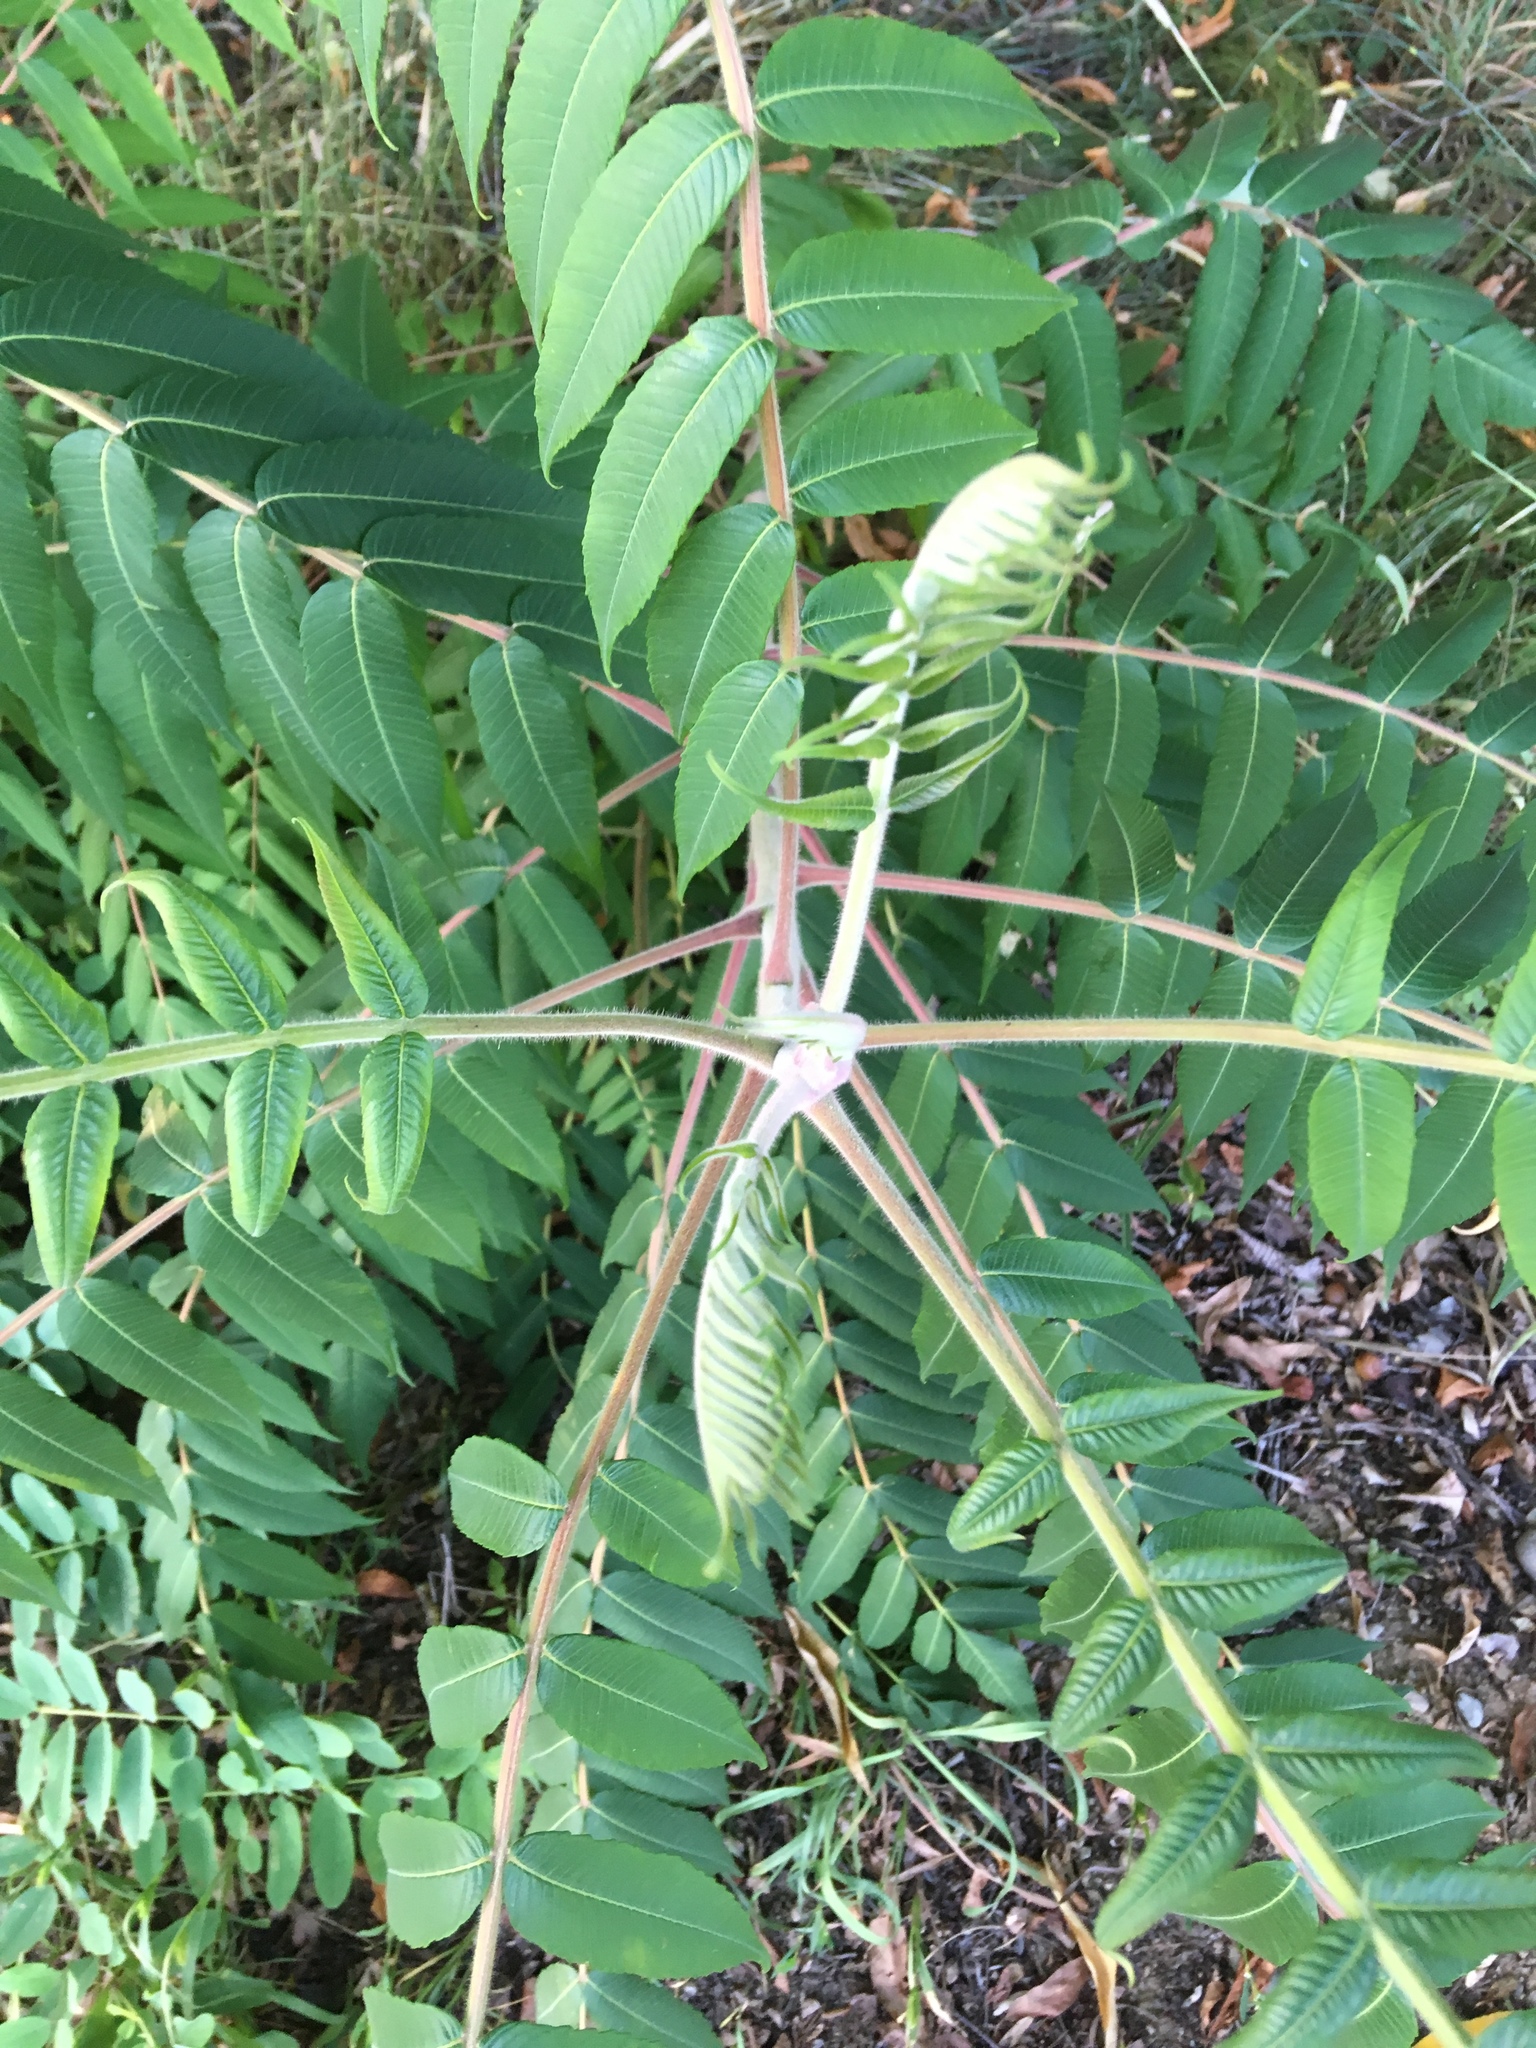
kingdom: Plantae
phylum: Tracheophyta
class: Magnoliopsida
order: Sapindales
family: Anacardiaceae
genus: Rhus
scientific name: Rhus typhina
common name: Staghorn sumac
